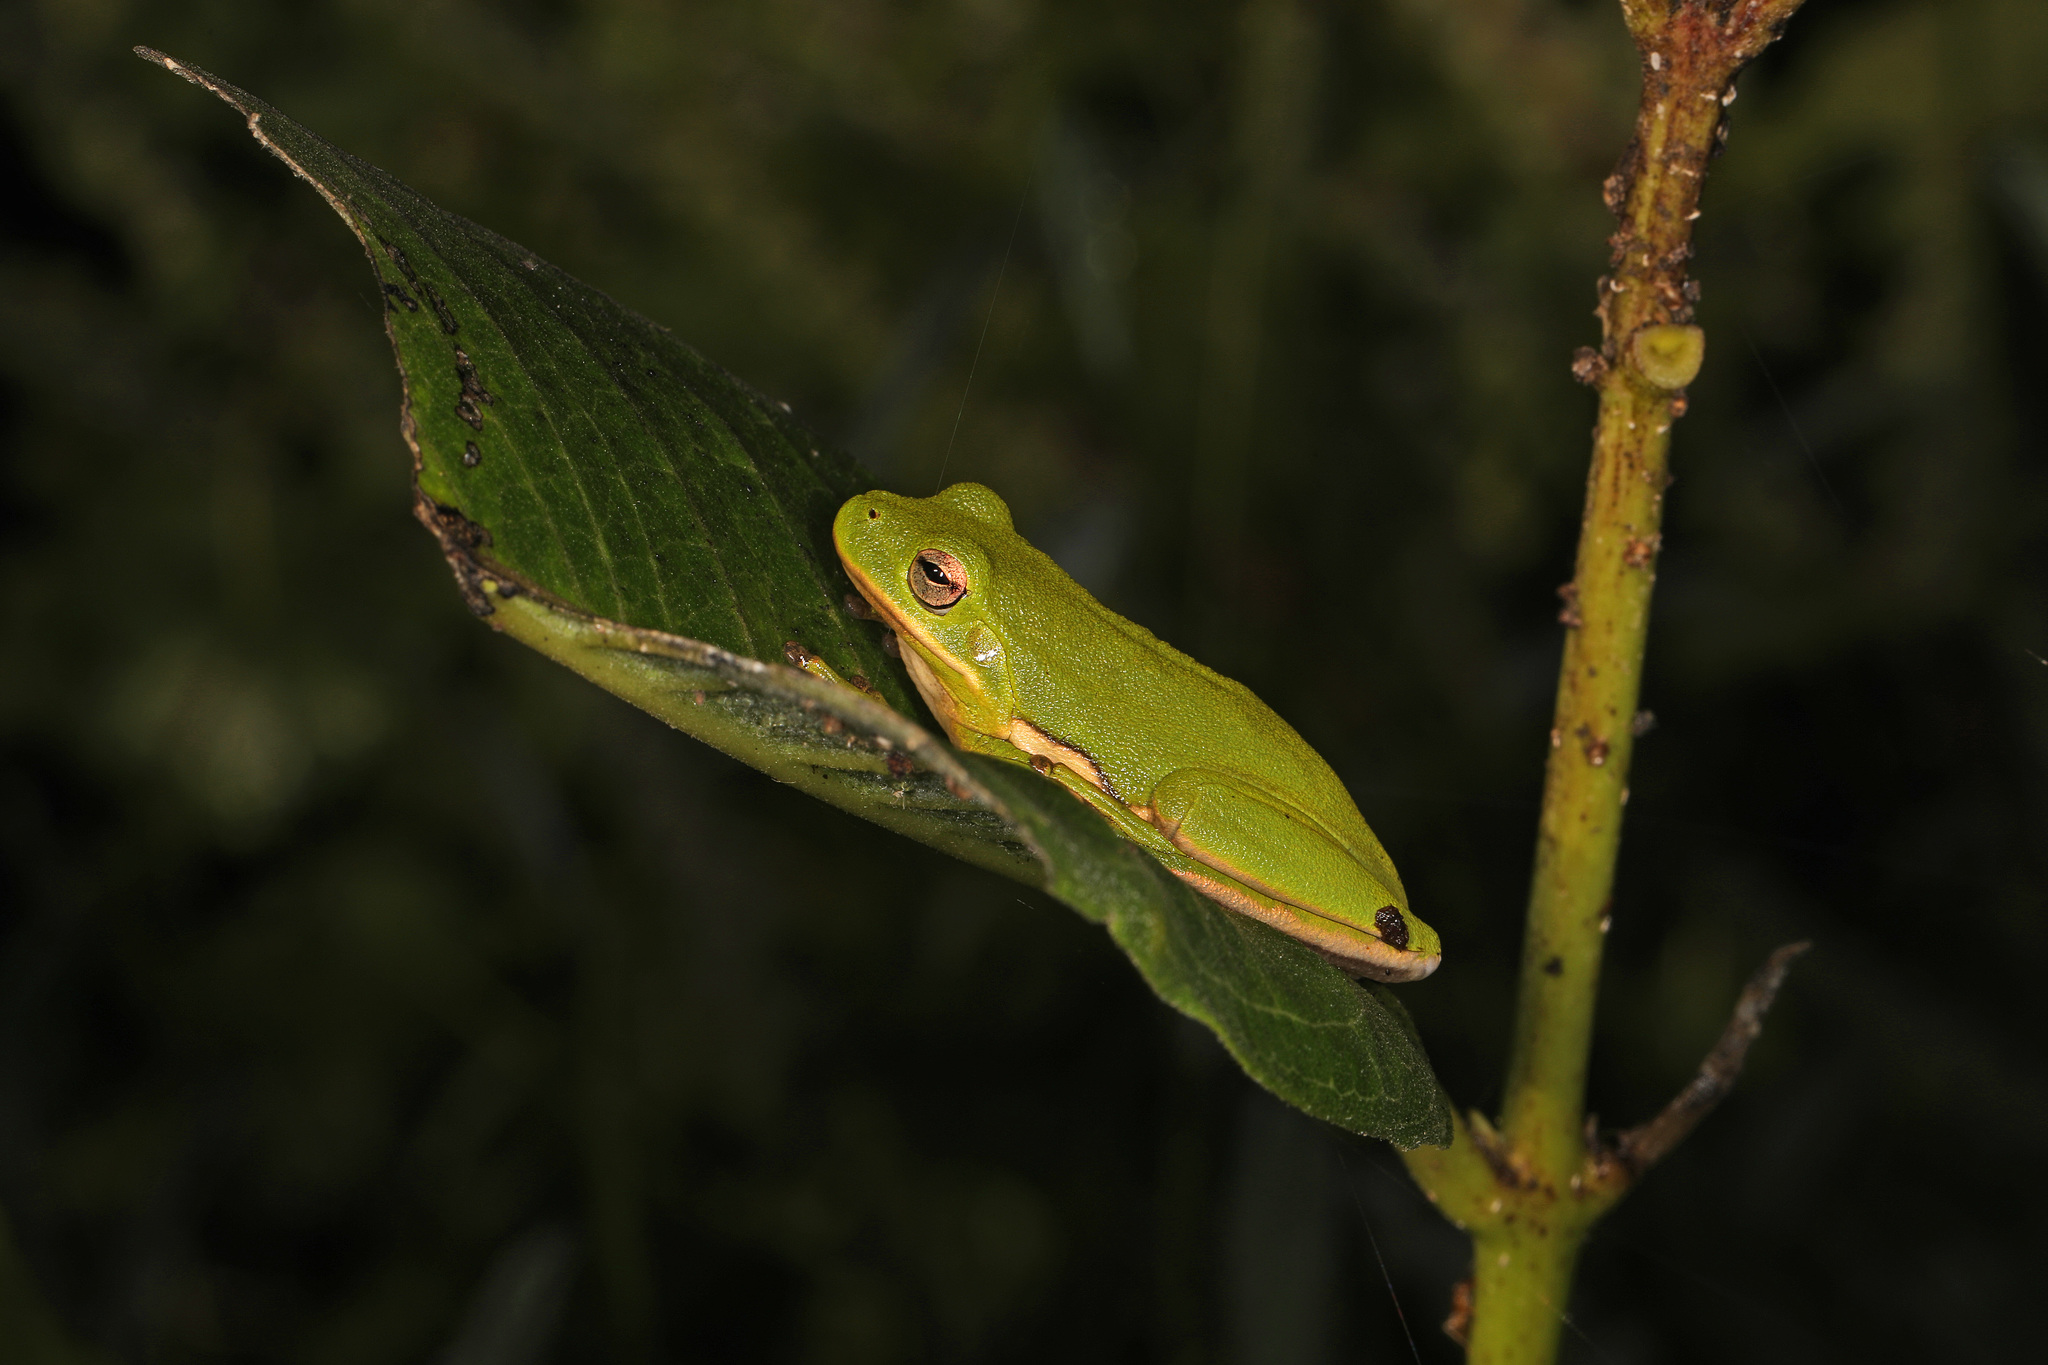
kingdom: Animalia
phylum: Chordata
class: Amphibia
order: Anura
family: Hylidae
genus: Dryophytes
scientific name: Dryophytes cinereus
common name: Green treefrog
